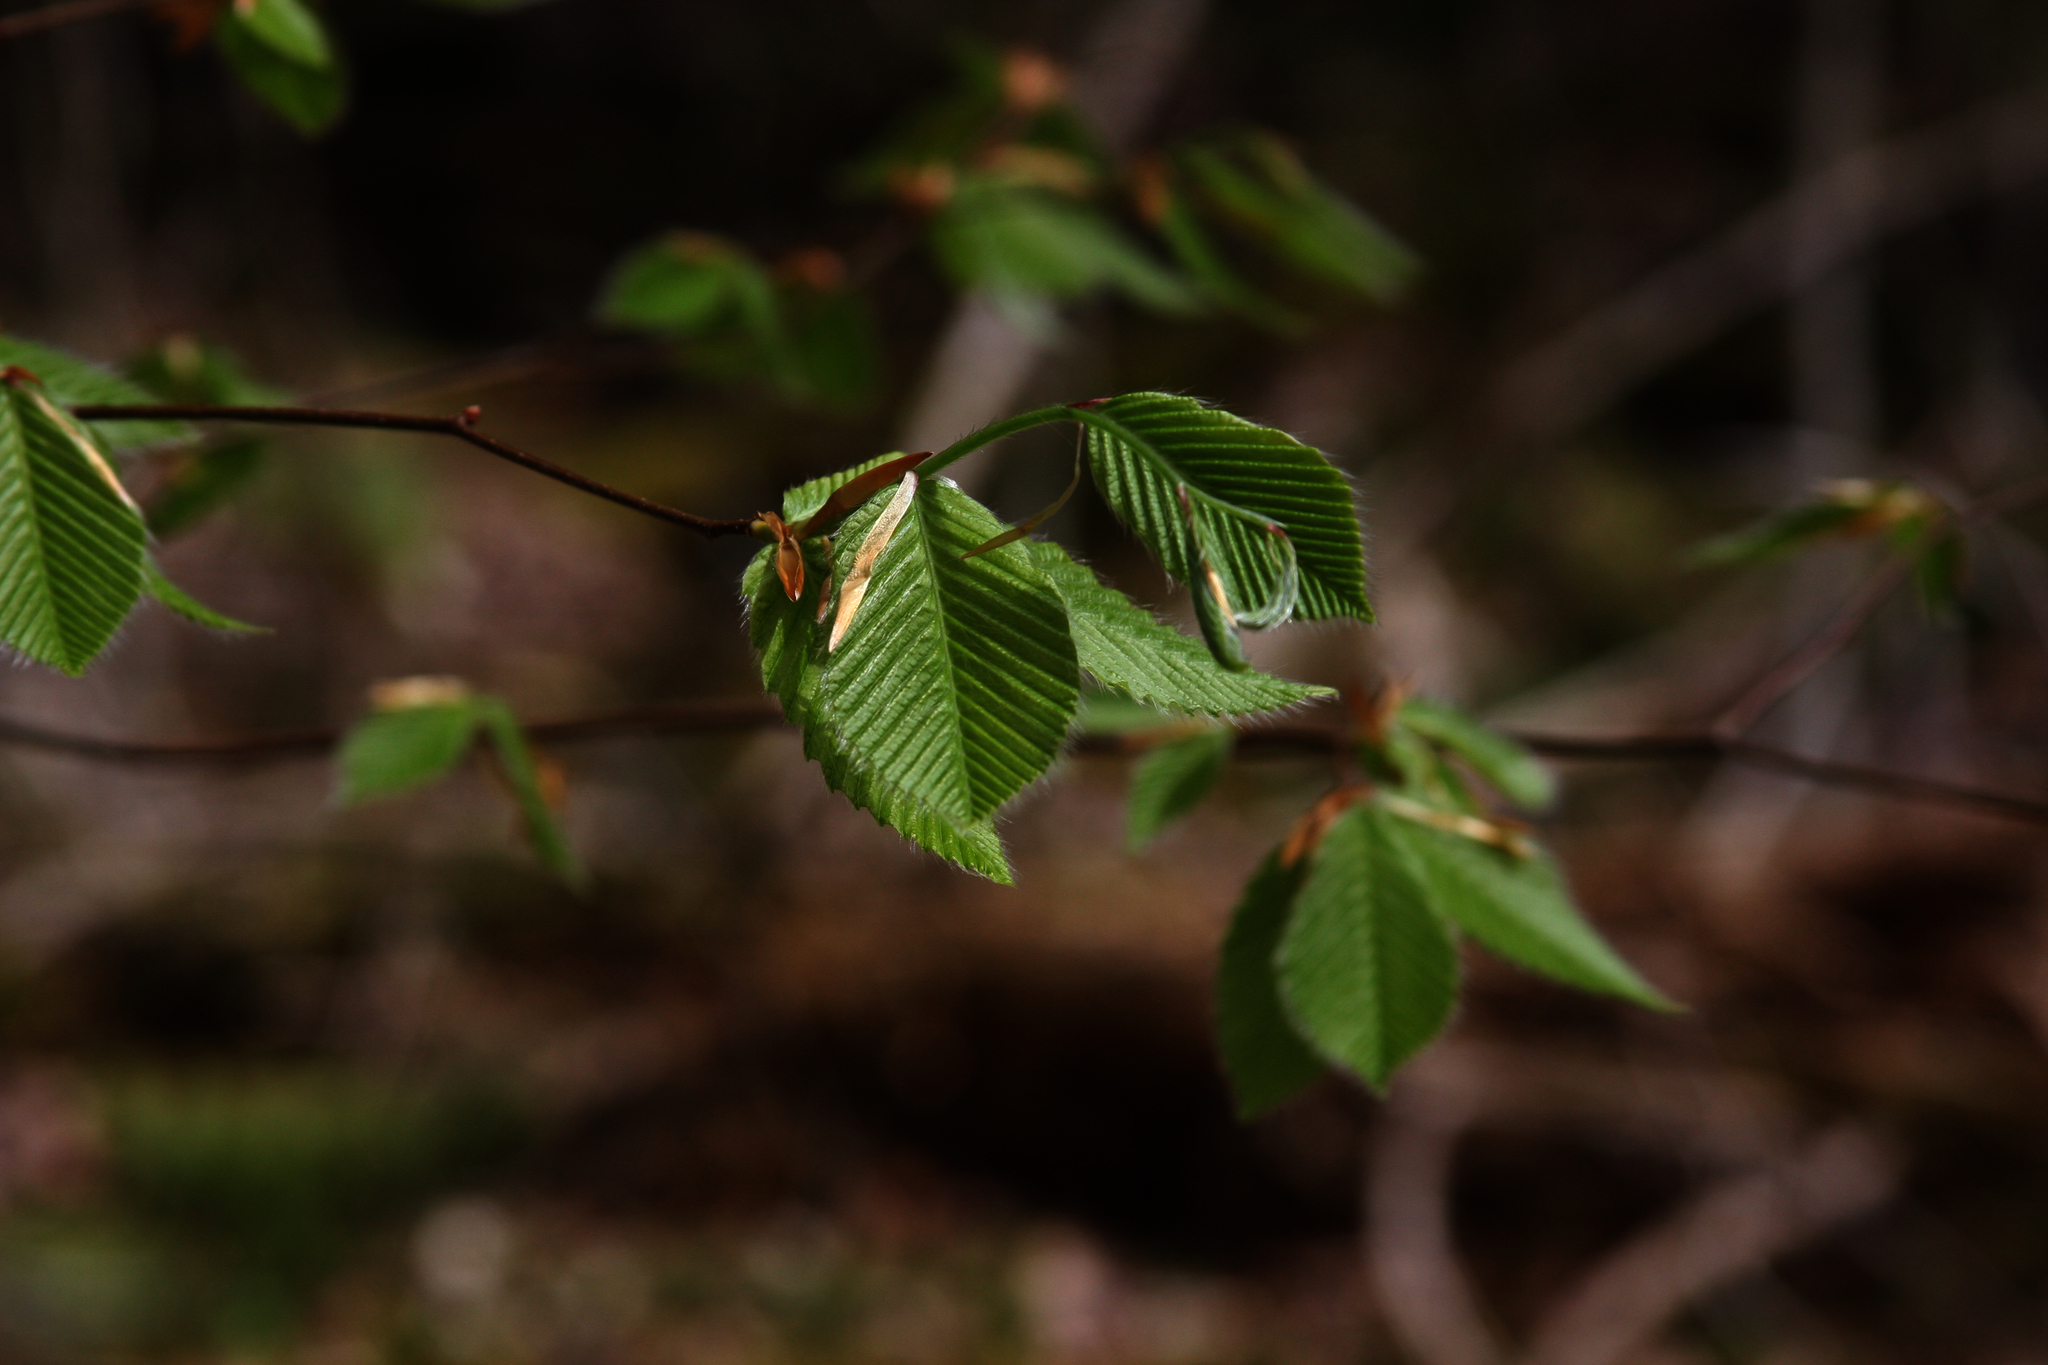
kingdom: Plantae
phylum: Tracheophyta
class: Magnoliopsida
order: Fagales
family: Fagaceae
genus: Fagus
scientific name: Fagus grandifolia
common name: American beech
